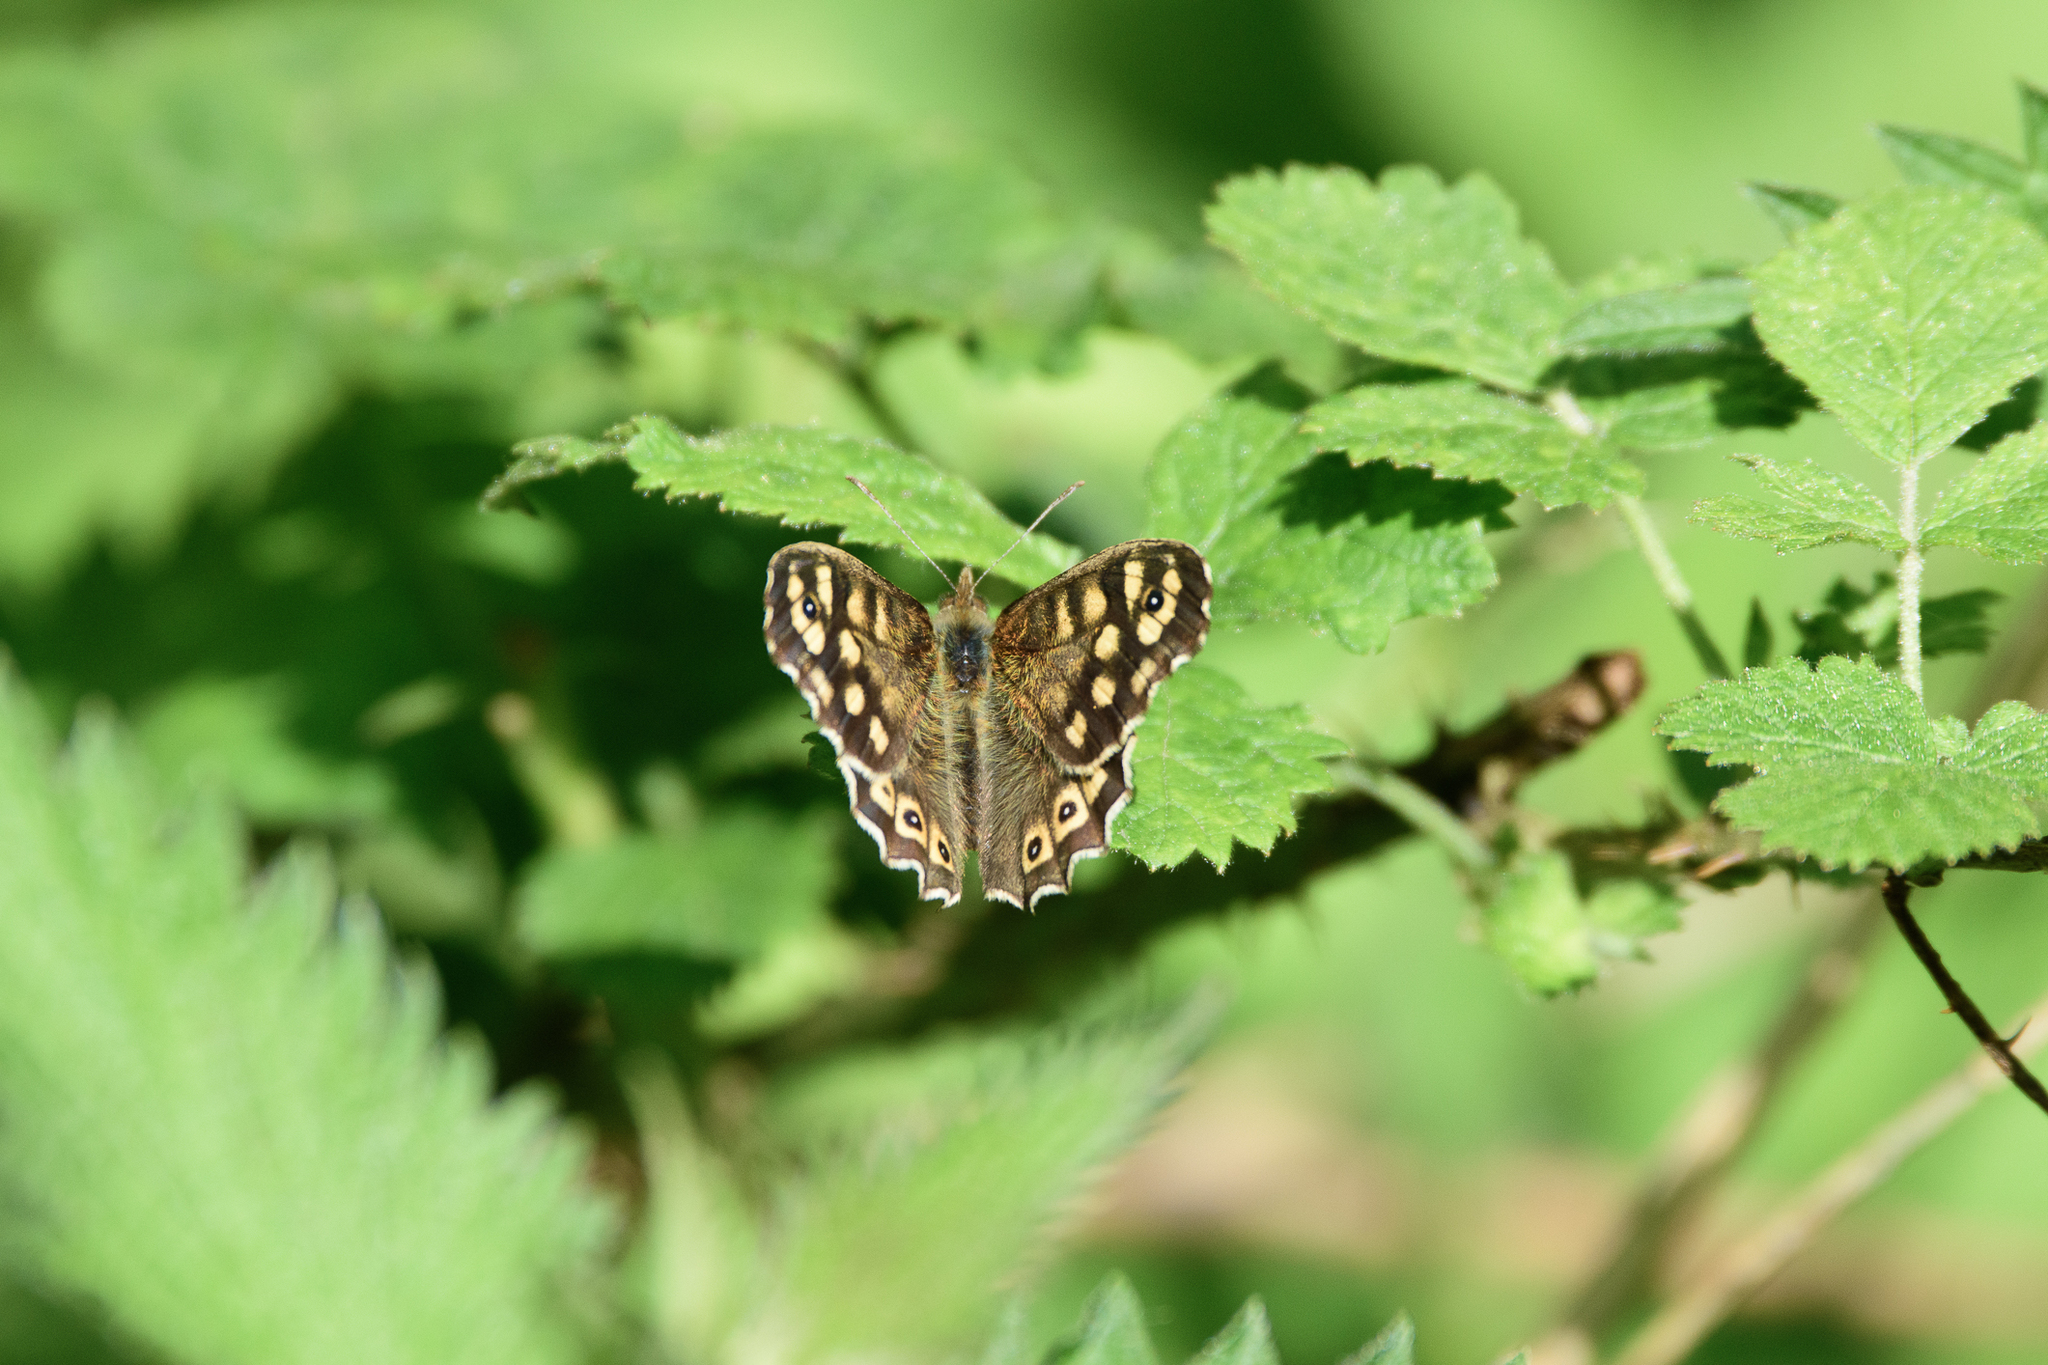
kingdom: Animalia
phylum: Arthropoda
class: Insecta
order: Lepidoptera
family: Nymphalidae
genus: Pararge
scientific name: Pararge aegeria
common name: Speckled wood
